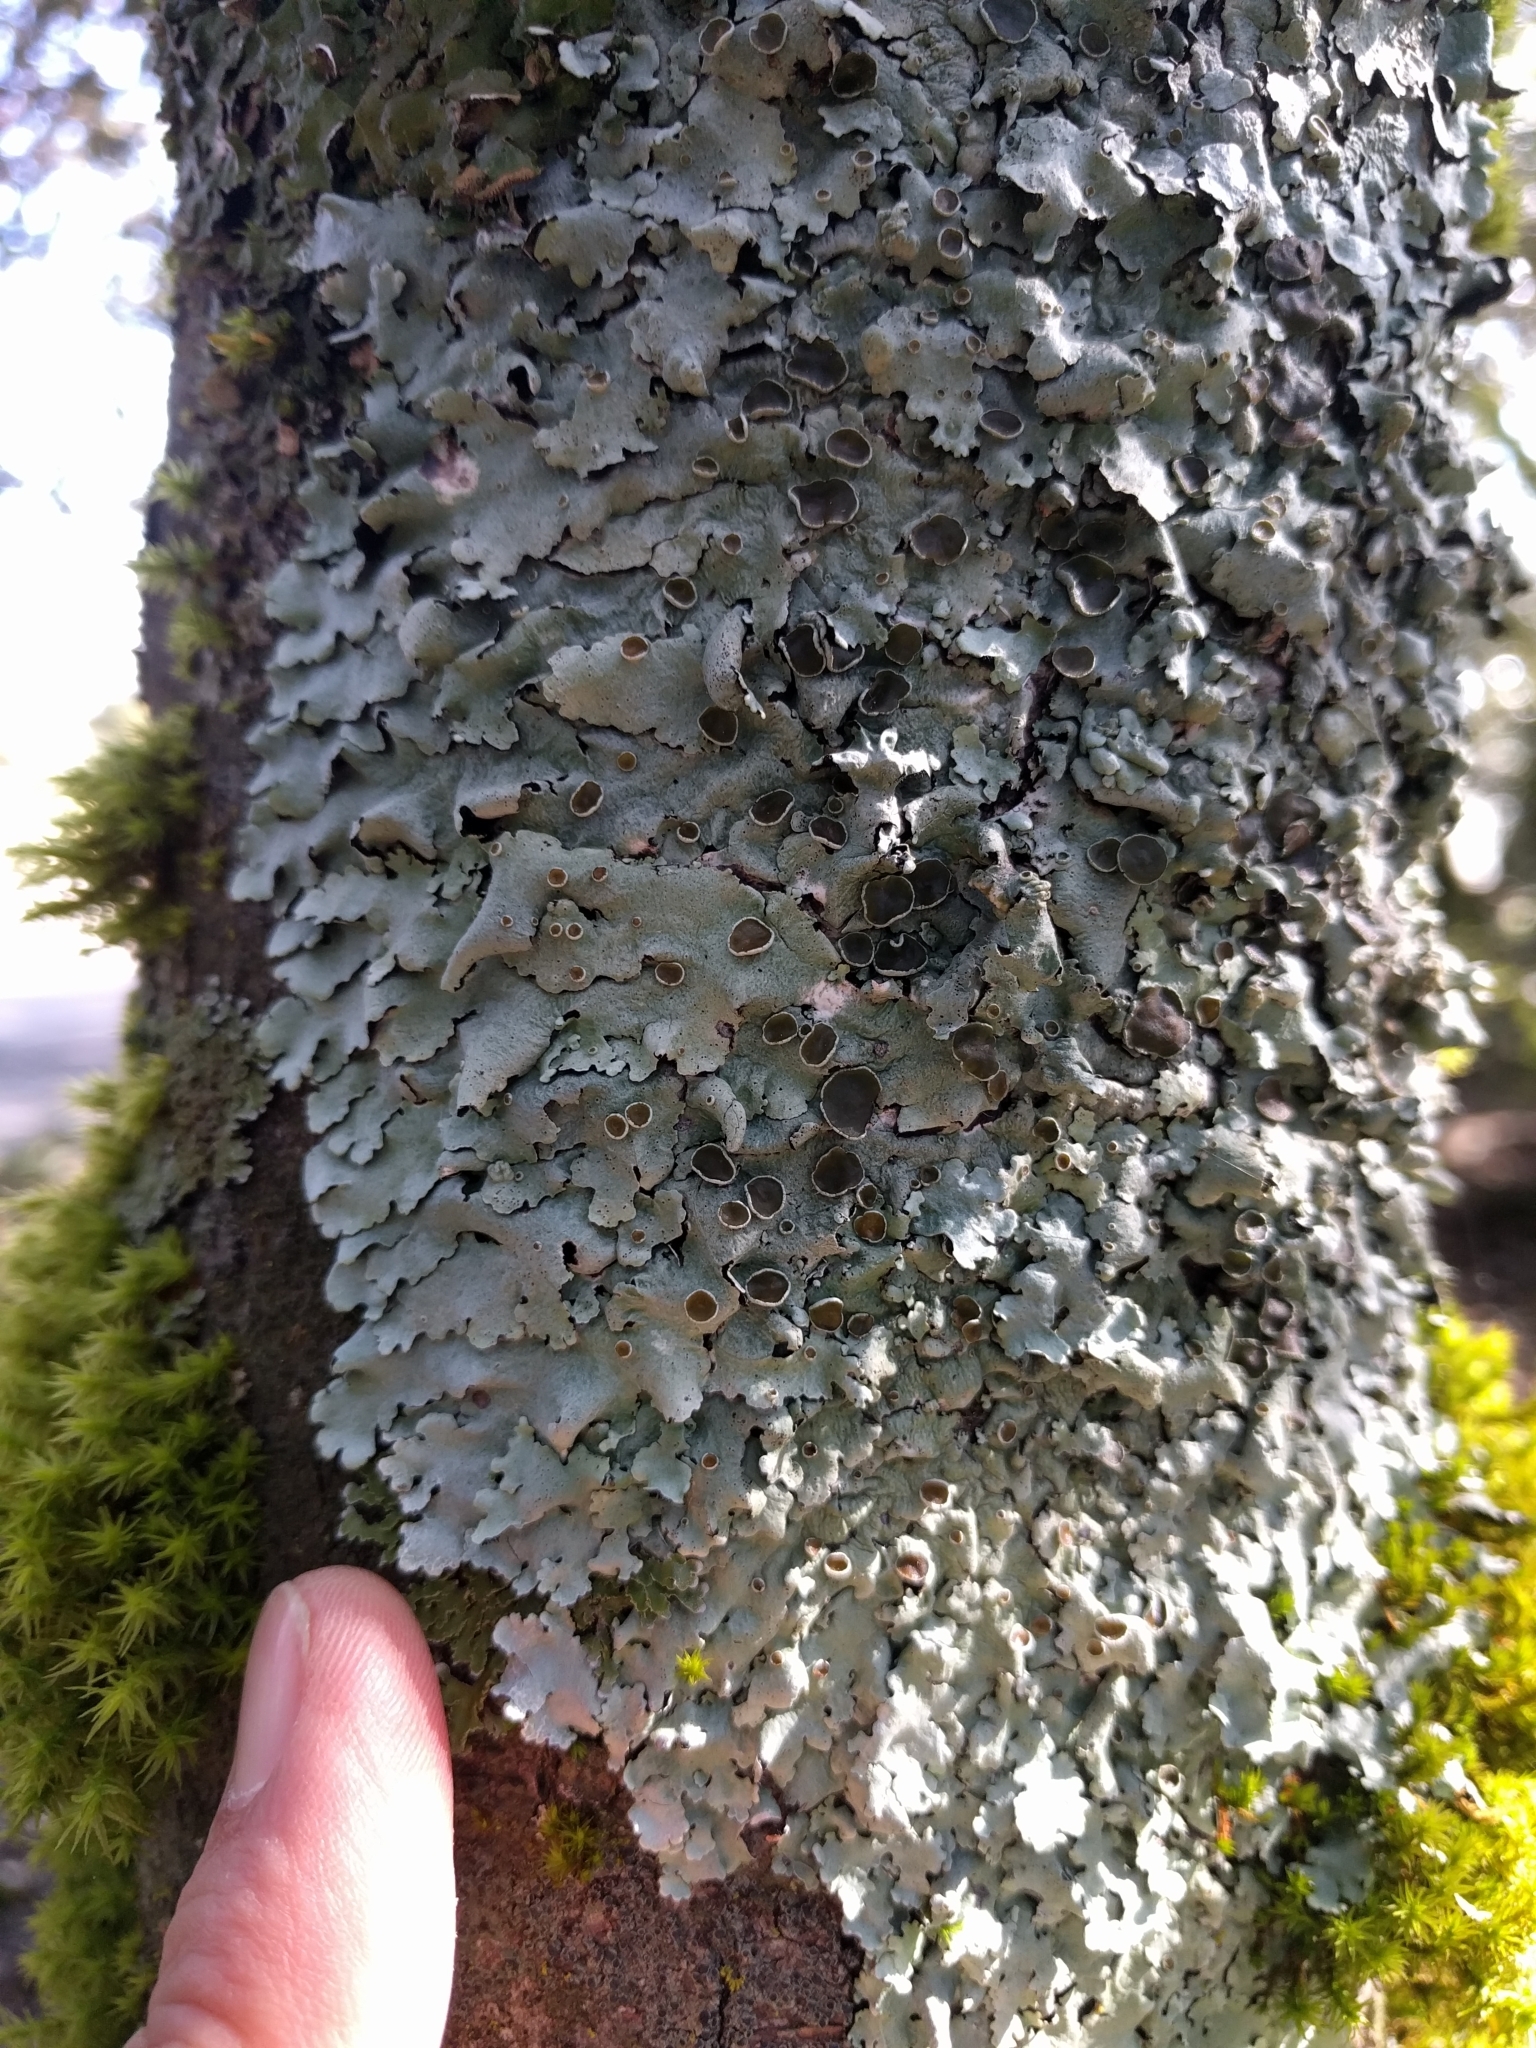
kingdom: Fungi
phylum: Ascomycota
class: Lecanoromycetes
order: Lecanorales
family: Parmeliaceae
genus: Parmelina
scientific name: Parmelina coleae
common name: Fringed shield lichen
